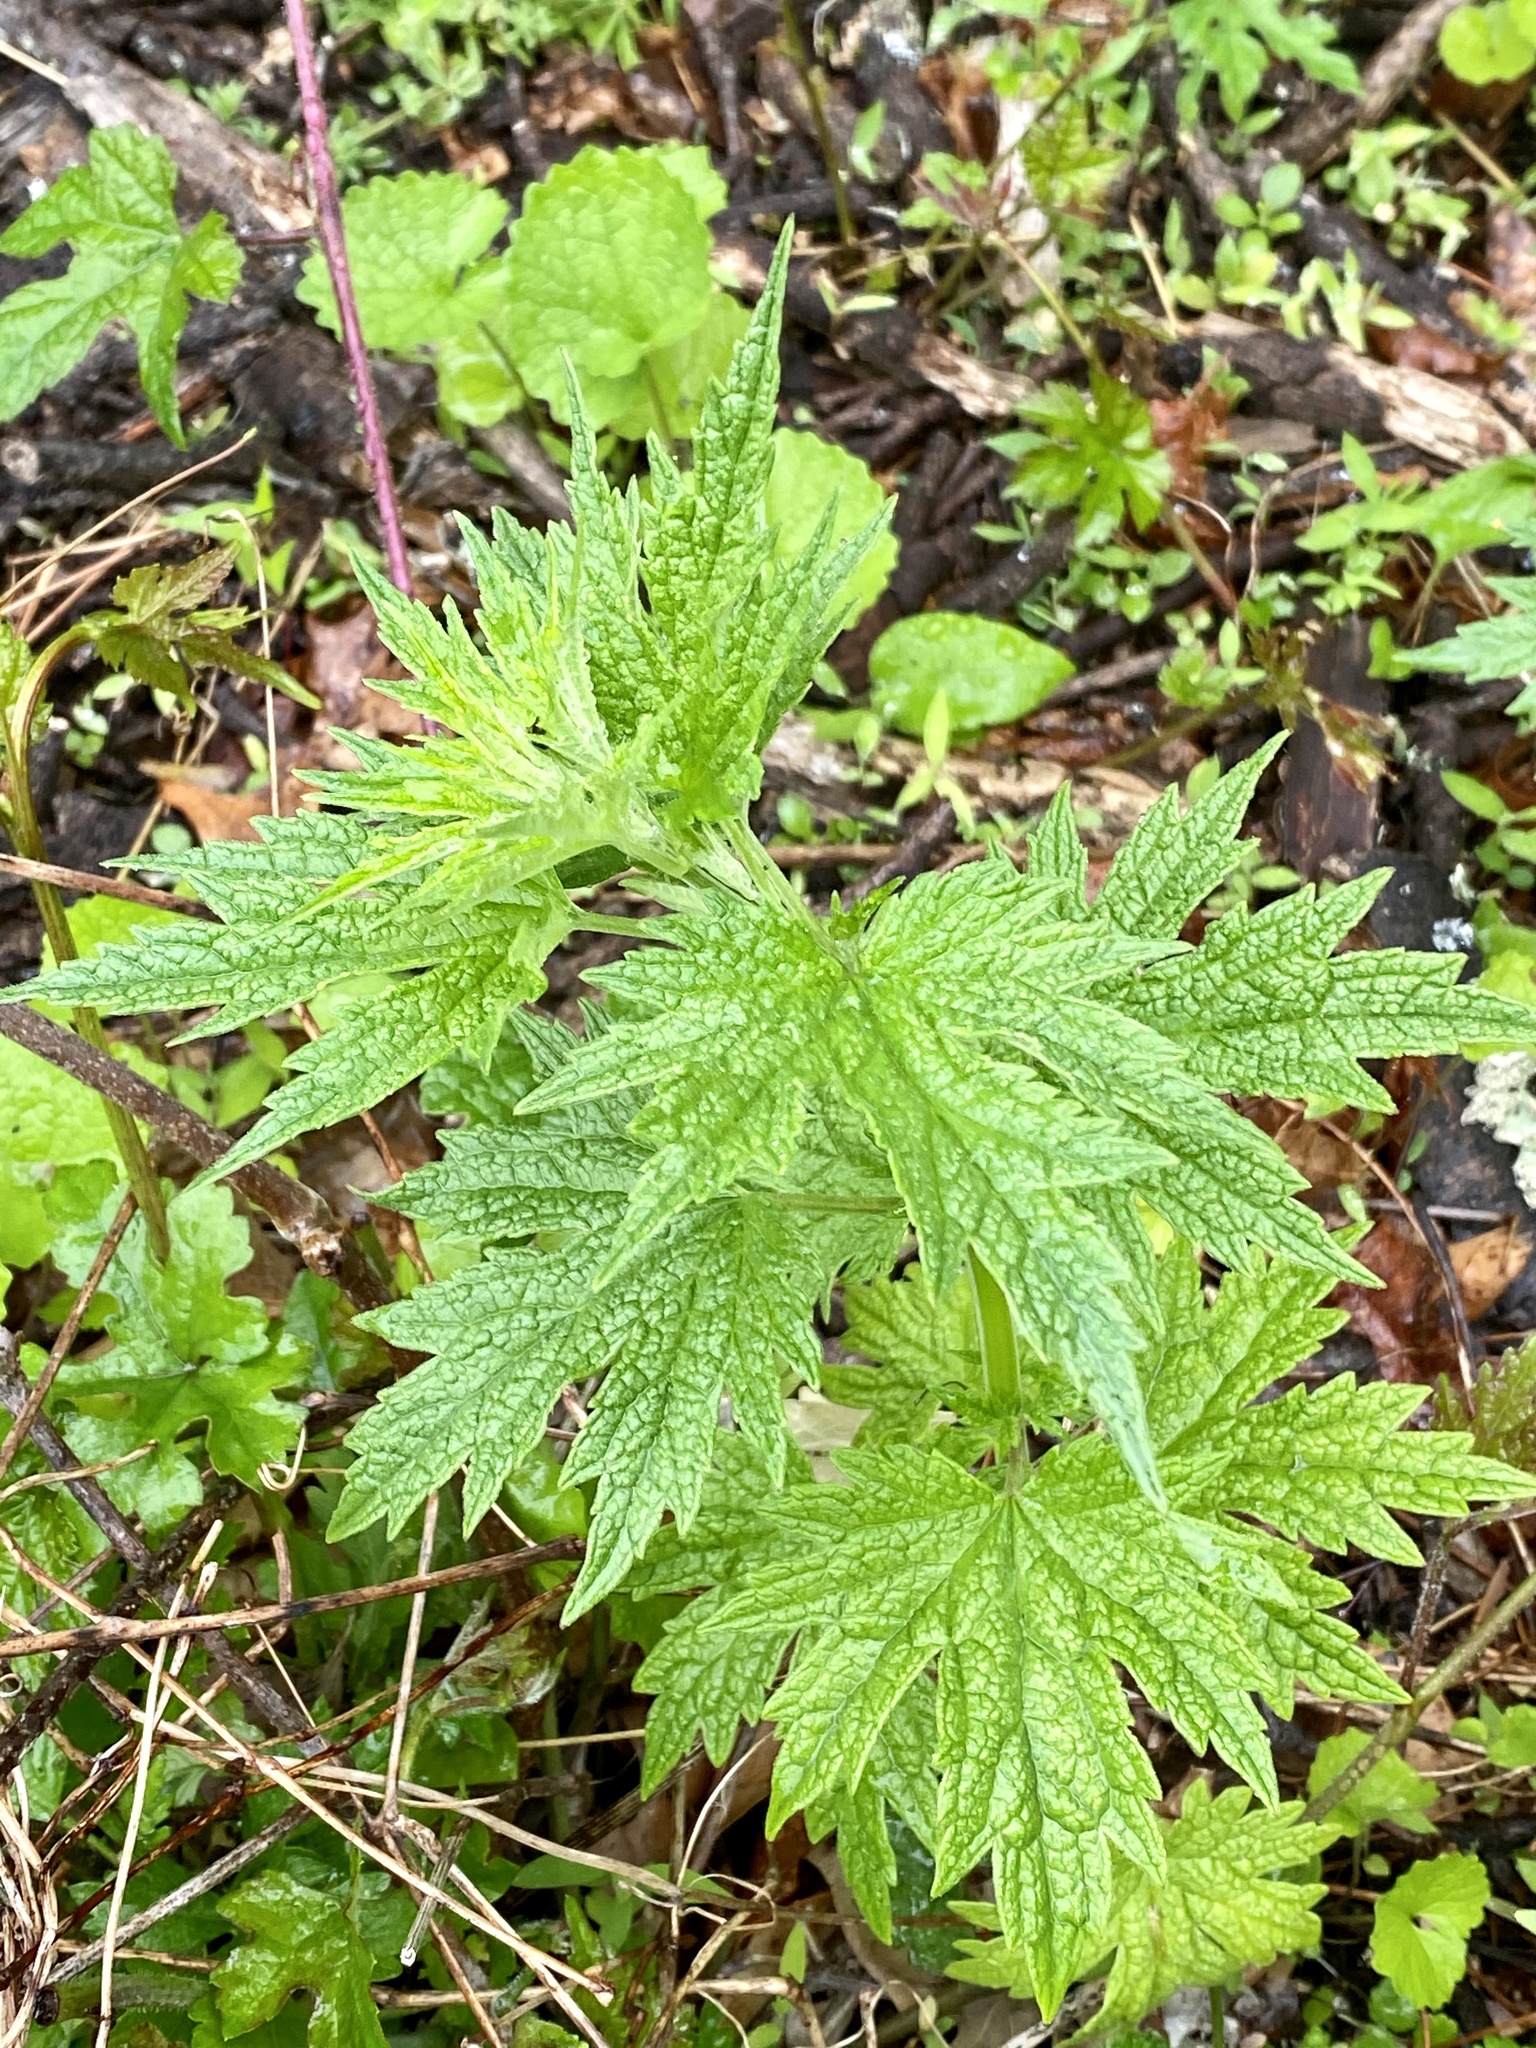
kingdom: Plantae
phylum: Tracheophyta
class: Magnoliopsida
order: Lamiales
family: Lamiaceae
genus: Leonurus
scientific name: Leonurus cardiaca
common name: Motherwort
